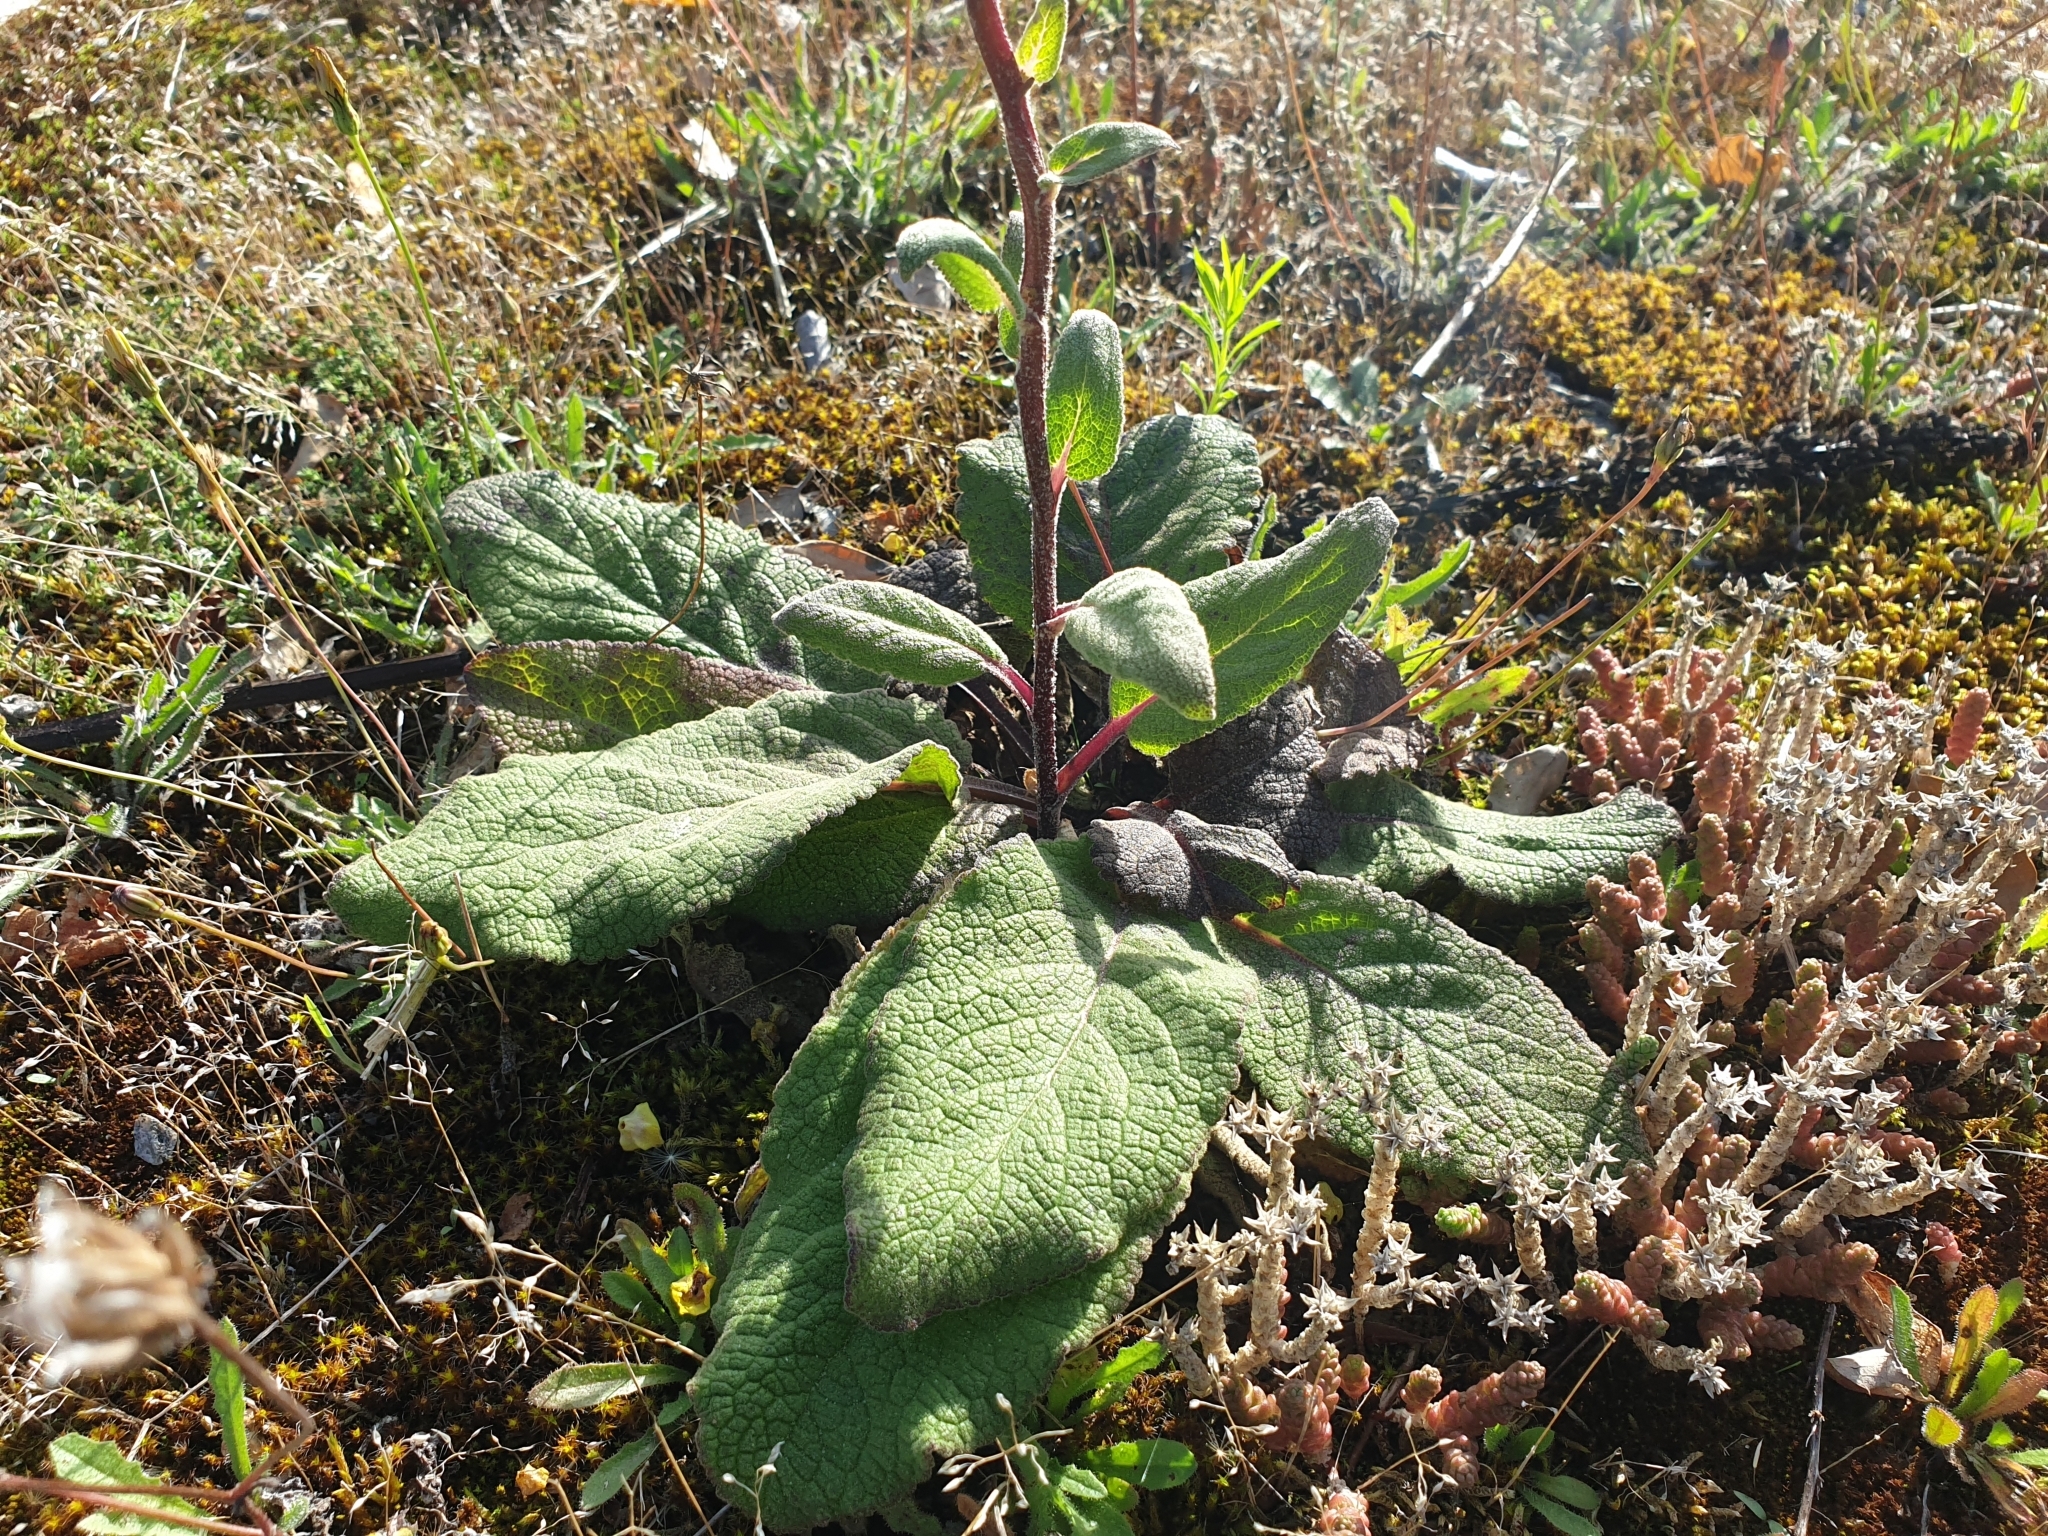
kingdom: Plantae
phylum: Tracheophyta
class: Magnoliopsida
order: Lamiales
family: Scrophulariaceae
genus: Verbascum
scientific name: Verbascum nigrum
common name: Dark mullein
